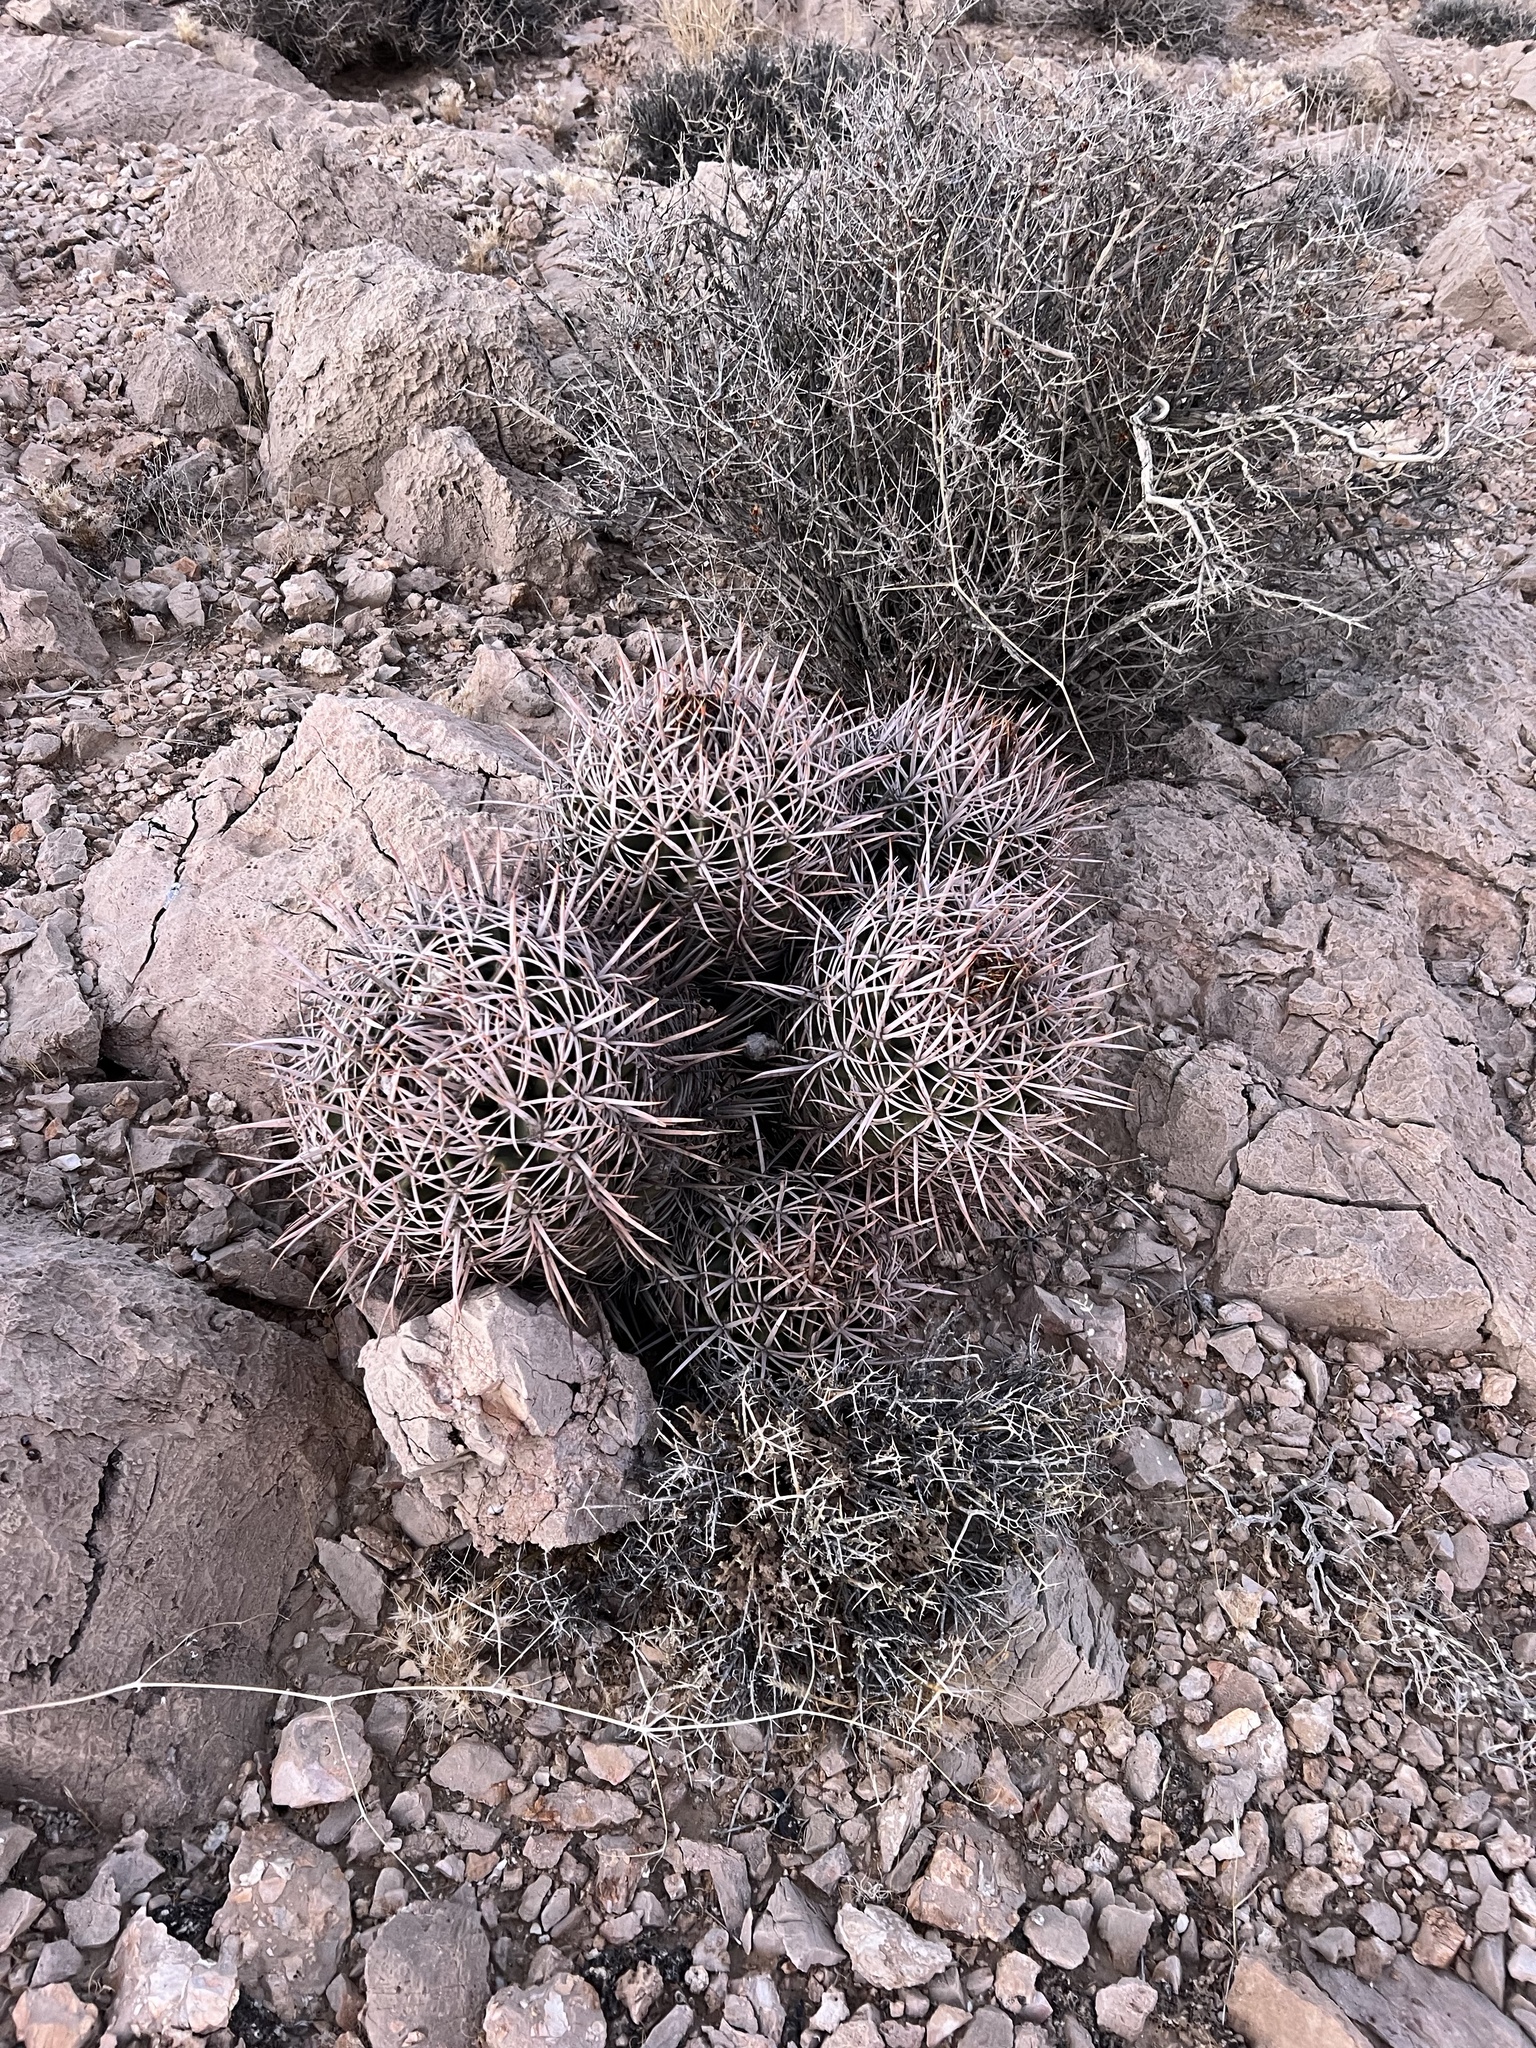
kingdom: Plantae
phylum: Tracheophyta
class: Magnoliopsida
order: Caryophyllales
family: Cactaceae
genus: Echinocactus
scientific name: Echinocactus polycephalus
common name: Cottontop cactus
